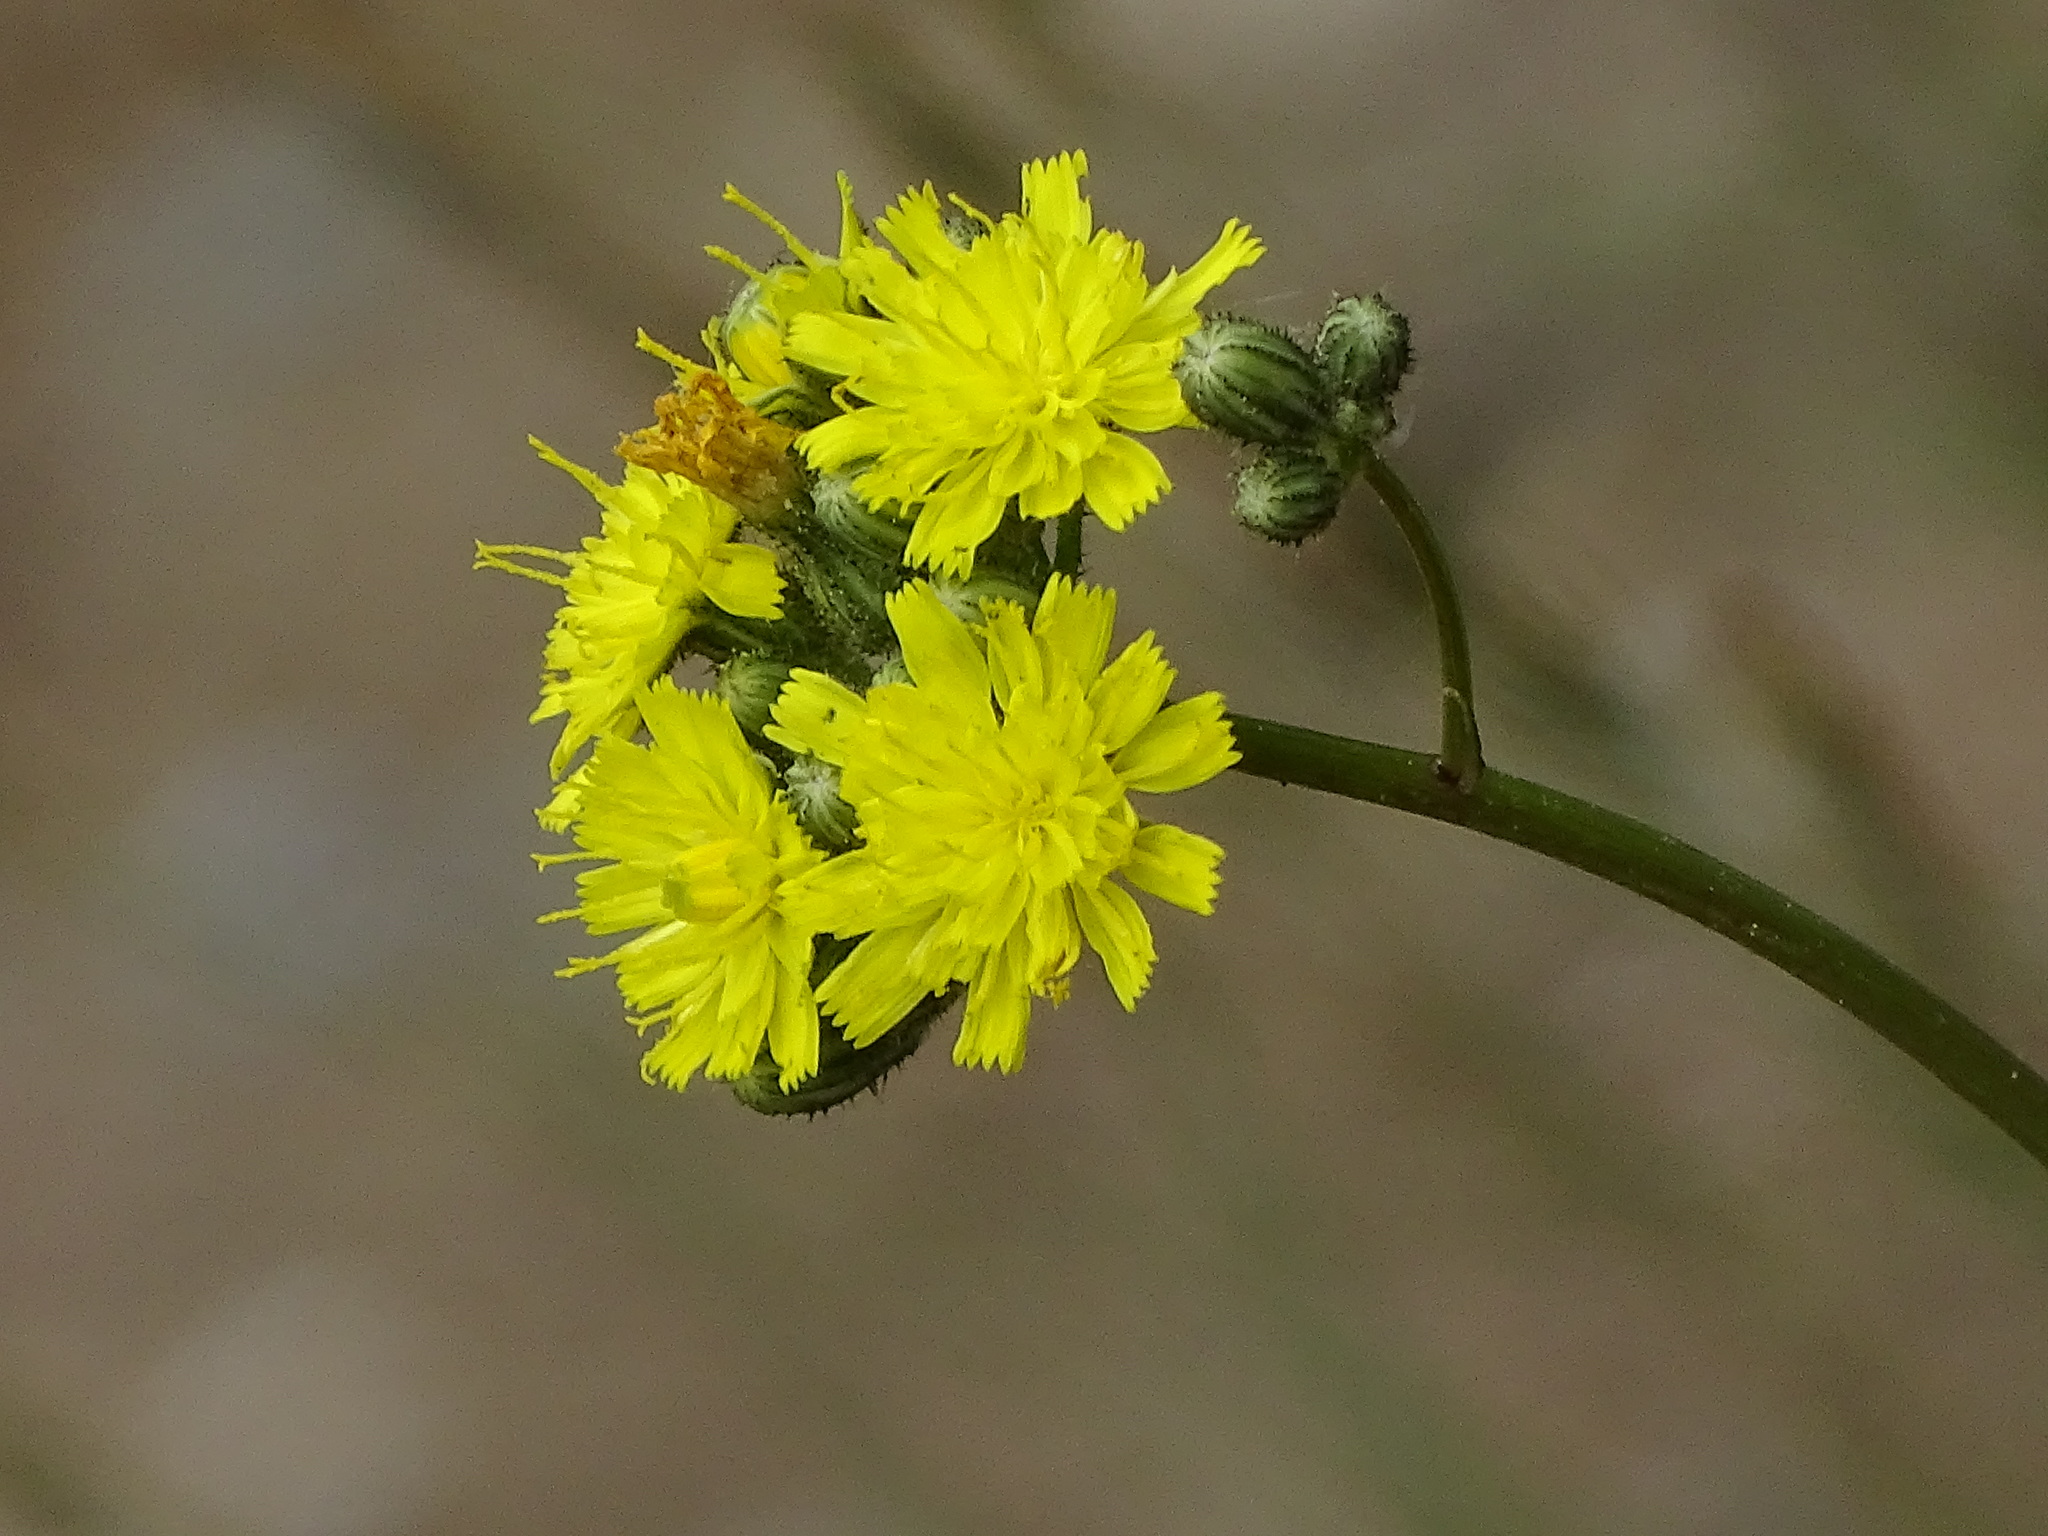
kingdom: Plantae
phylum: Tracheophyta
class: Magnoliopsida
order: Asterales
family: Asteraceae
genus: Pilosella
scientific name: Pilosella piloselloides
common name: Glaucous king-devil
